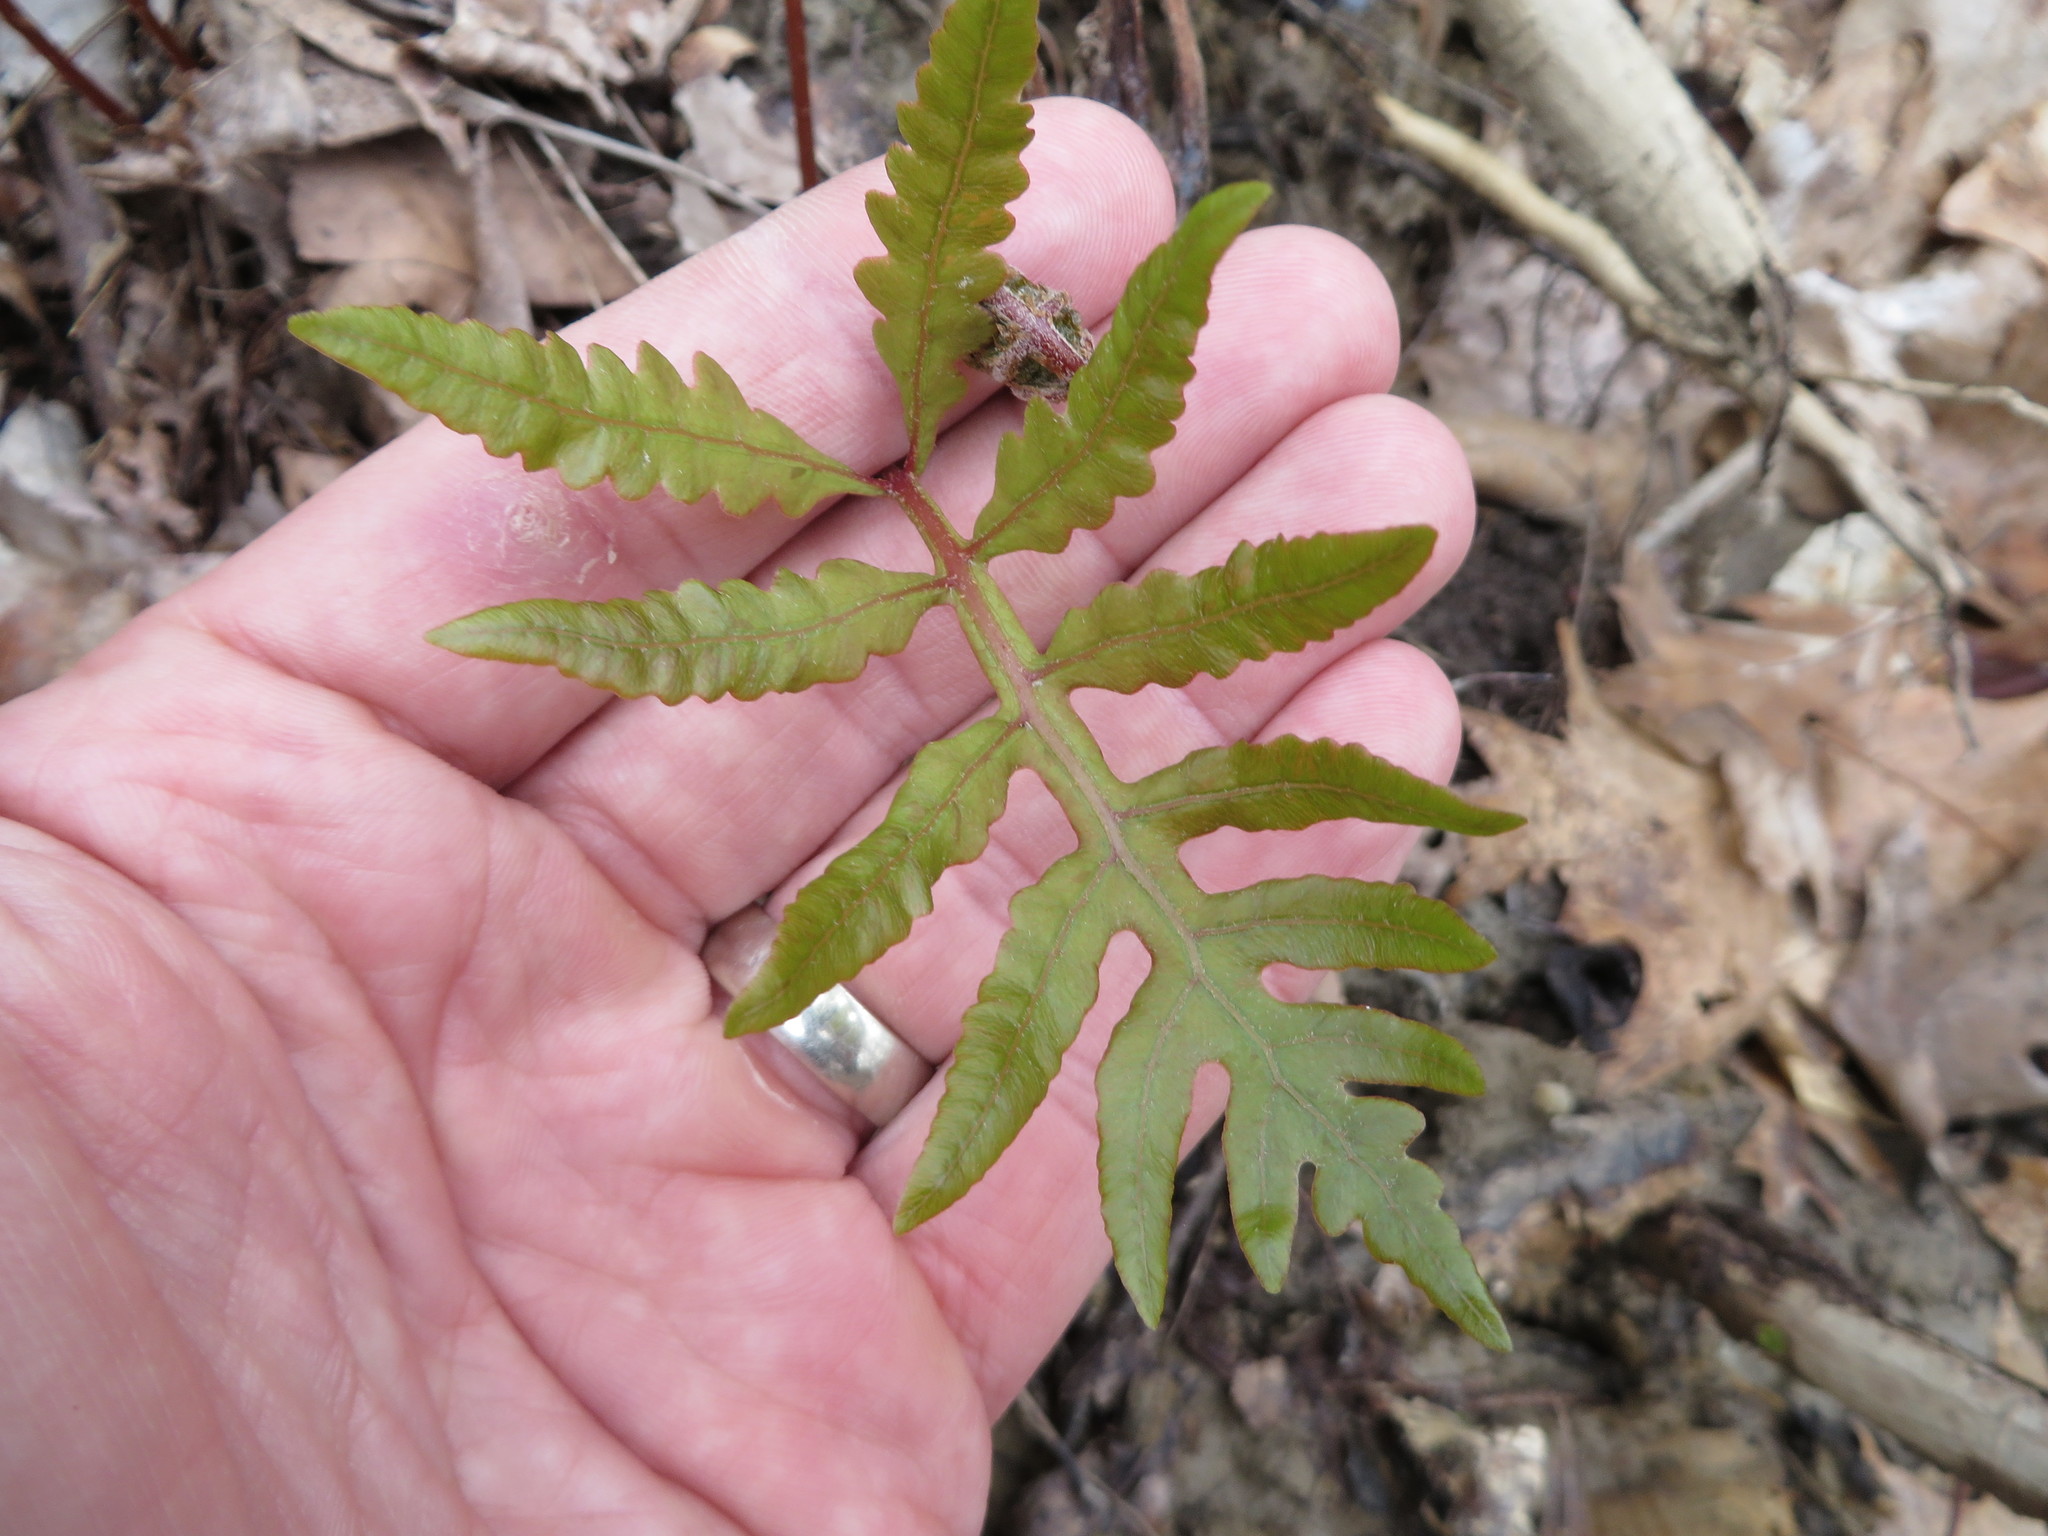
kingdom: Plantae
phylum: Tracheophyta
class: Polypodiopsida
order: Polypodiales
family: Onocleaceae
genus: Onoclea
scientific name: Onoclea sensibilis
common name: Sensitive fern
